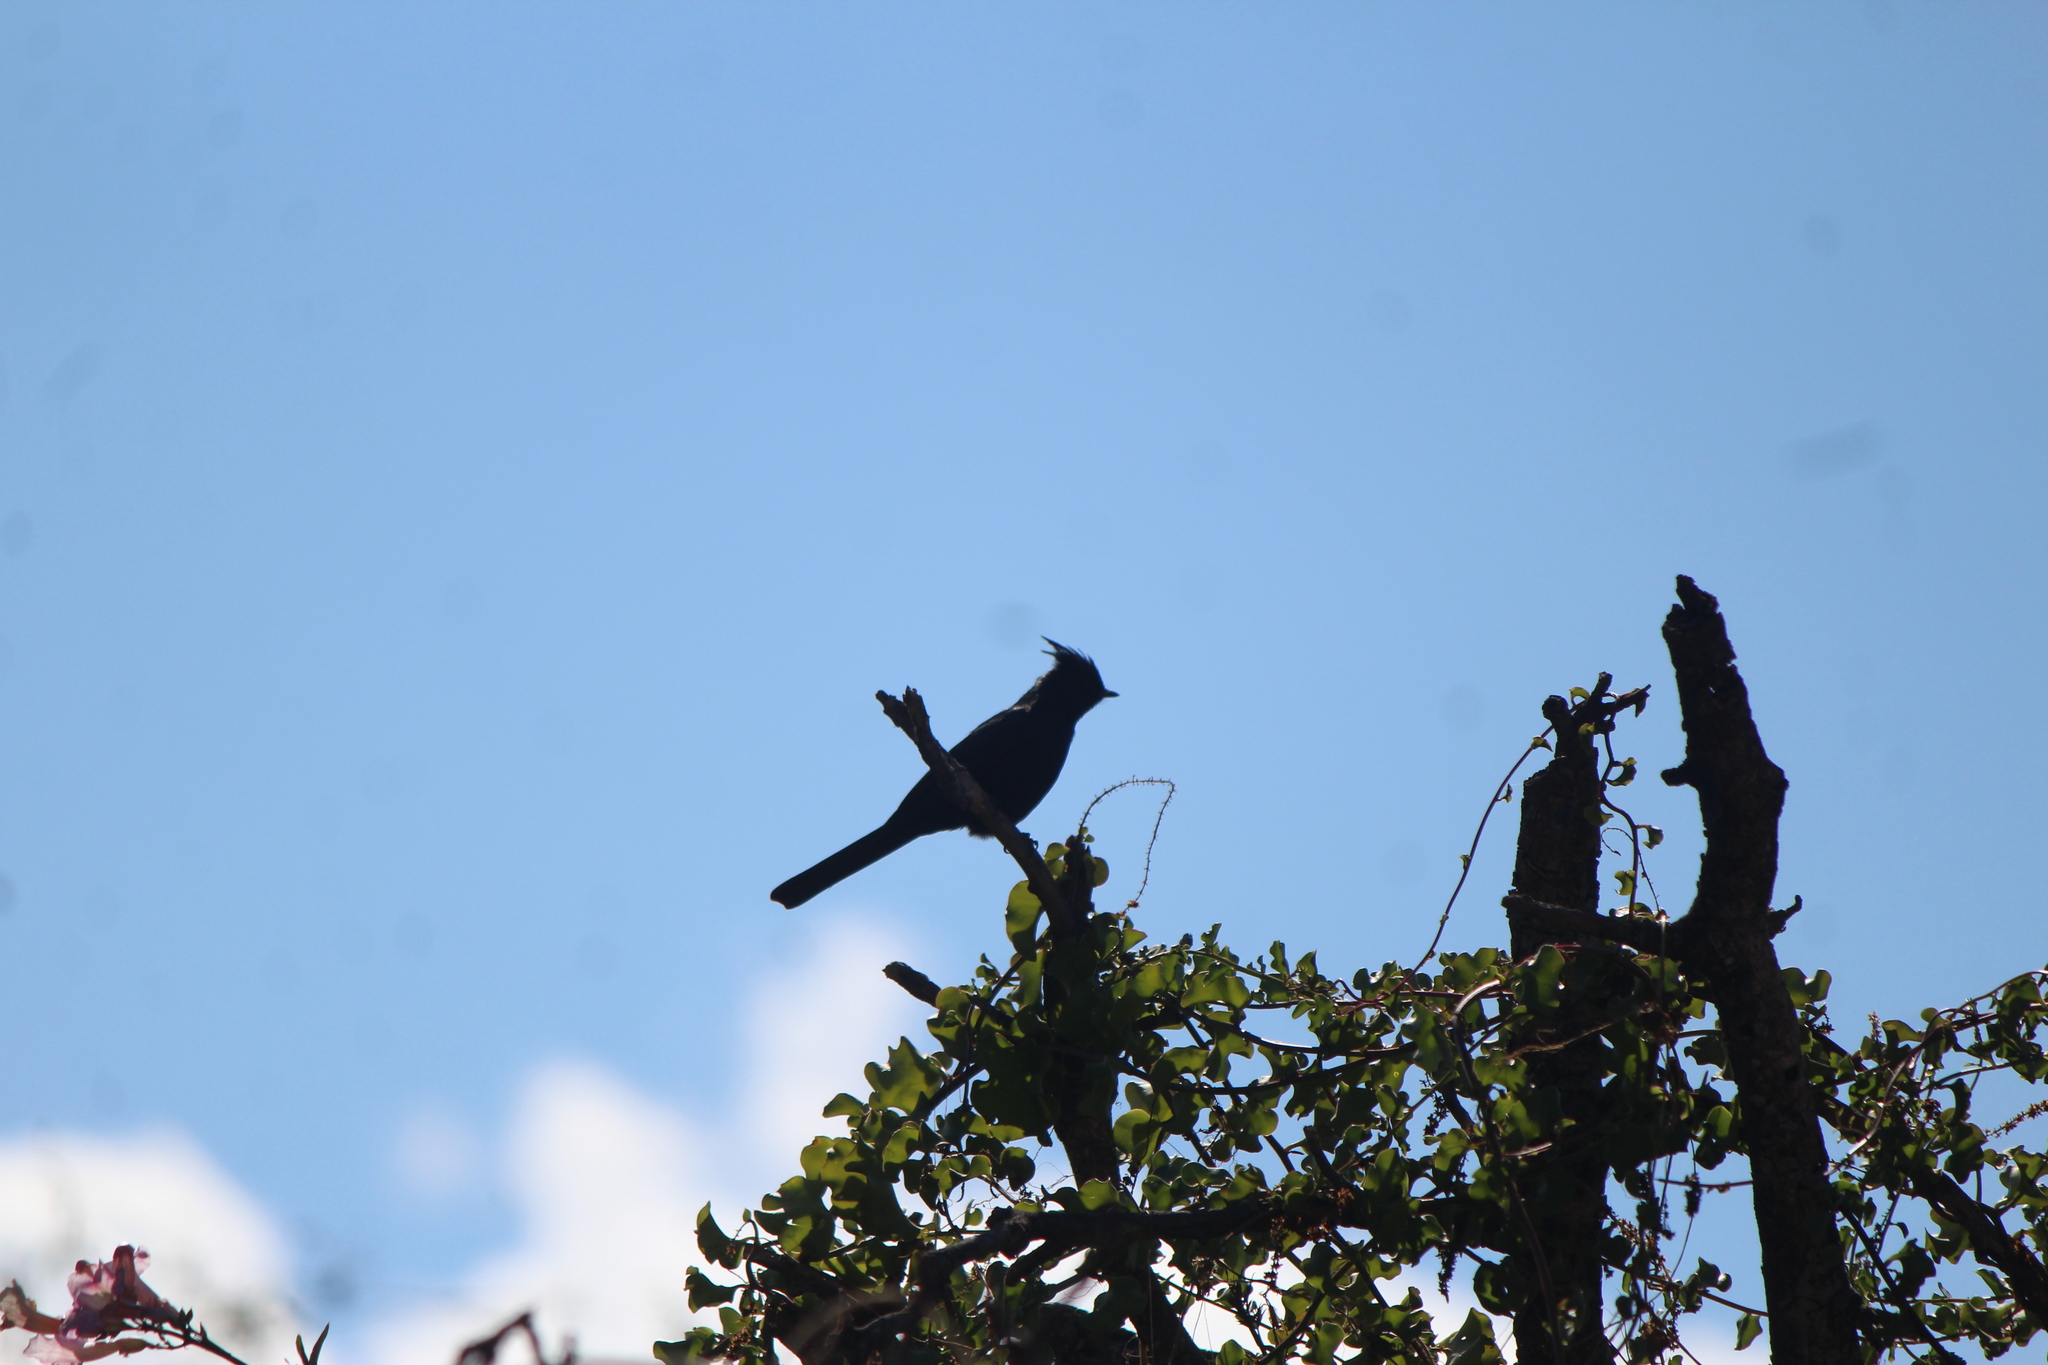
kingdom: Animalia
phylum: Chordata
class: Aves
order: Passeriformes
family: Ptilogonatidae
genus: Phainopepla
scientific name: Phainopepla nitens
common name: Phainopepla
